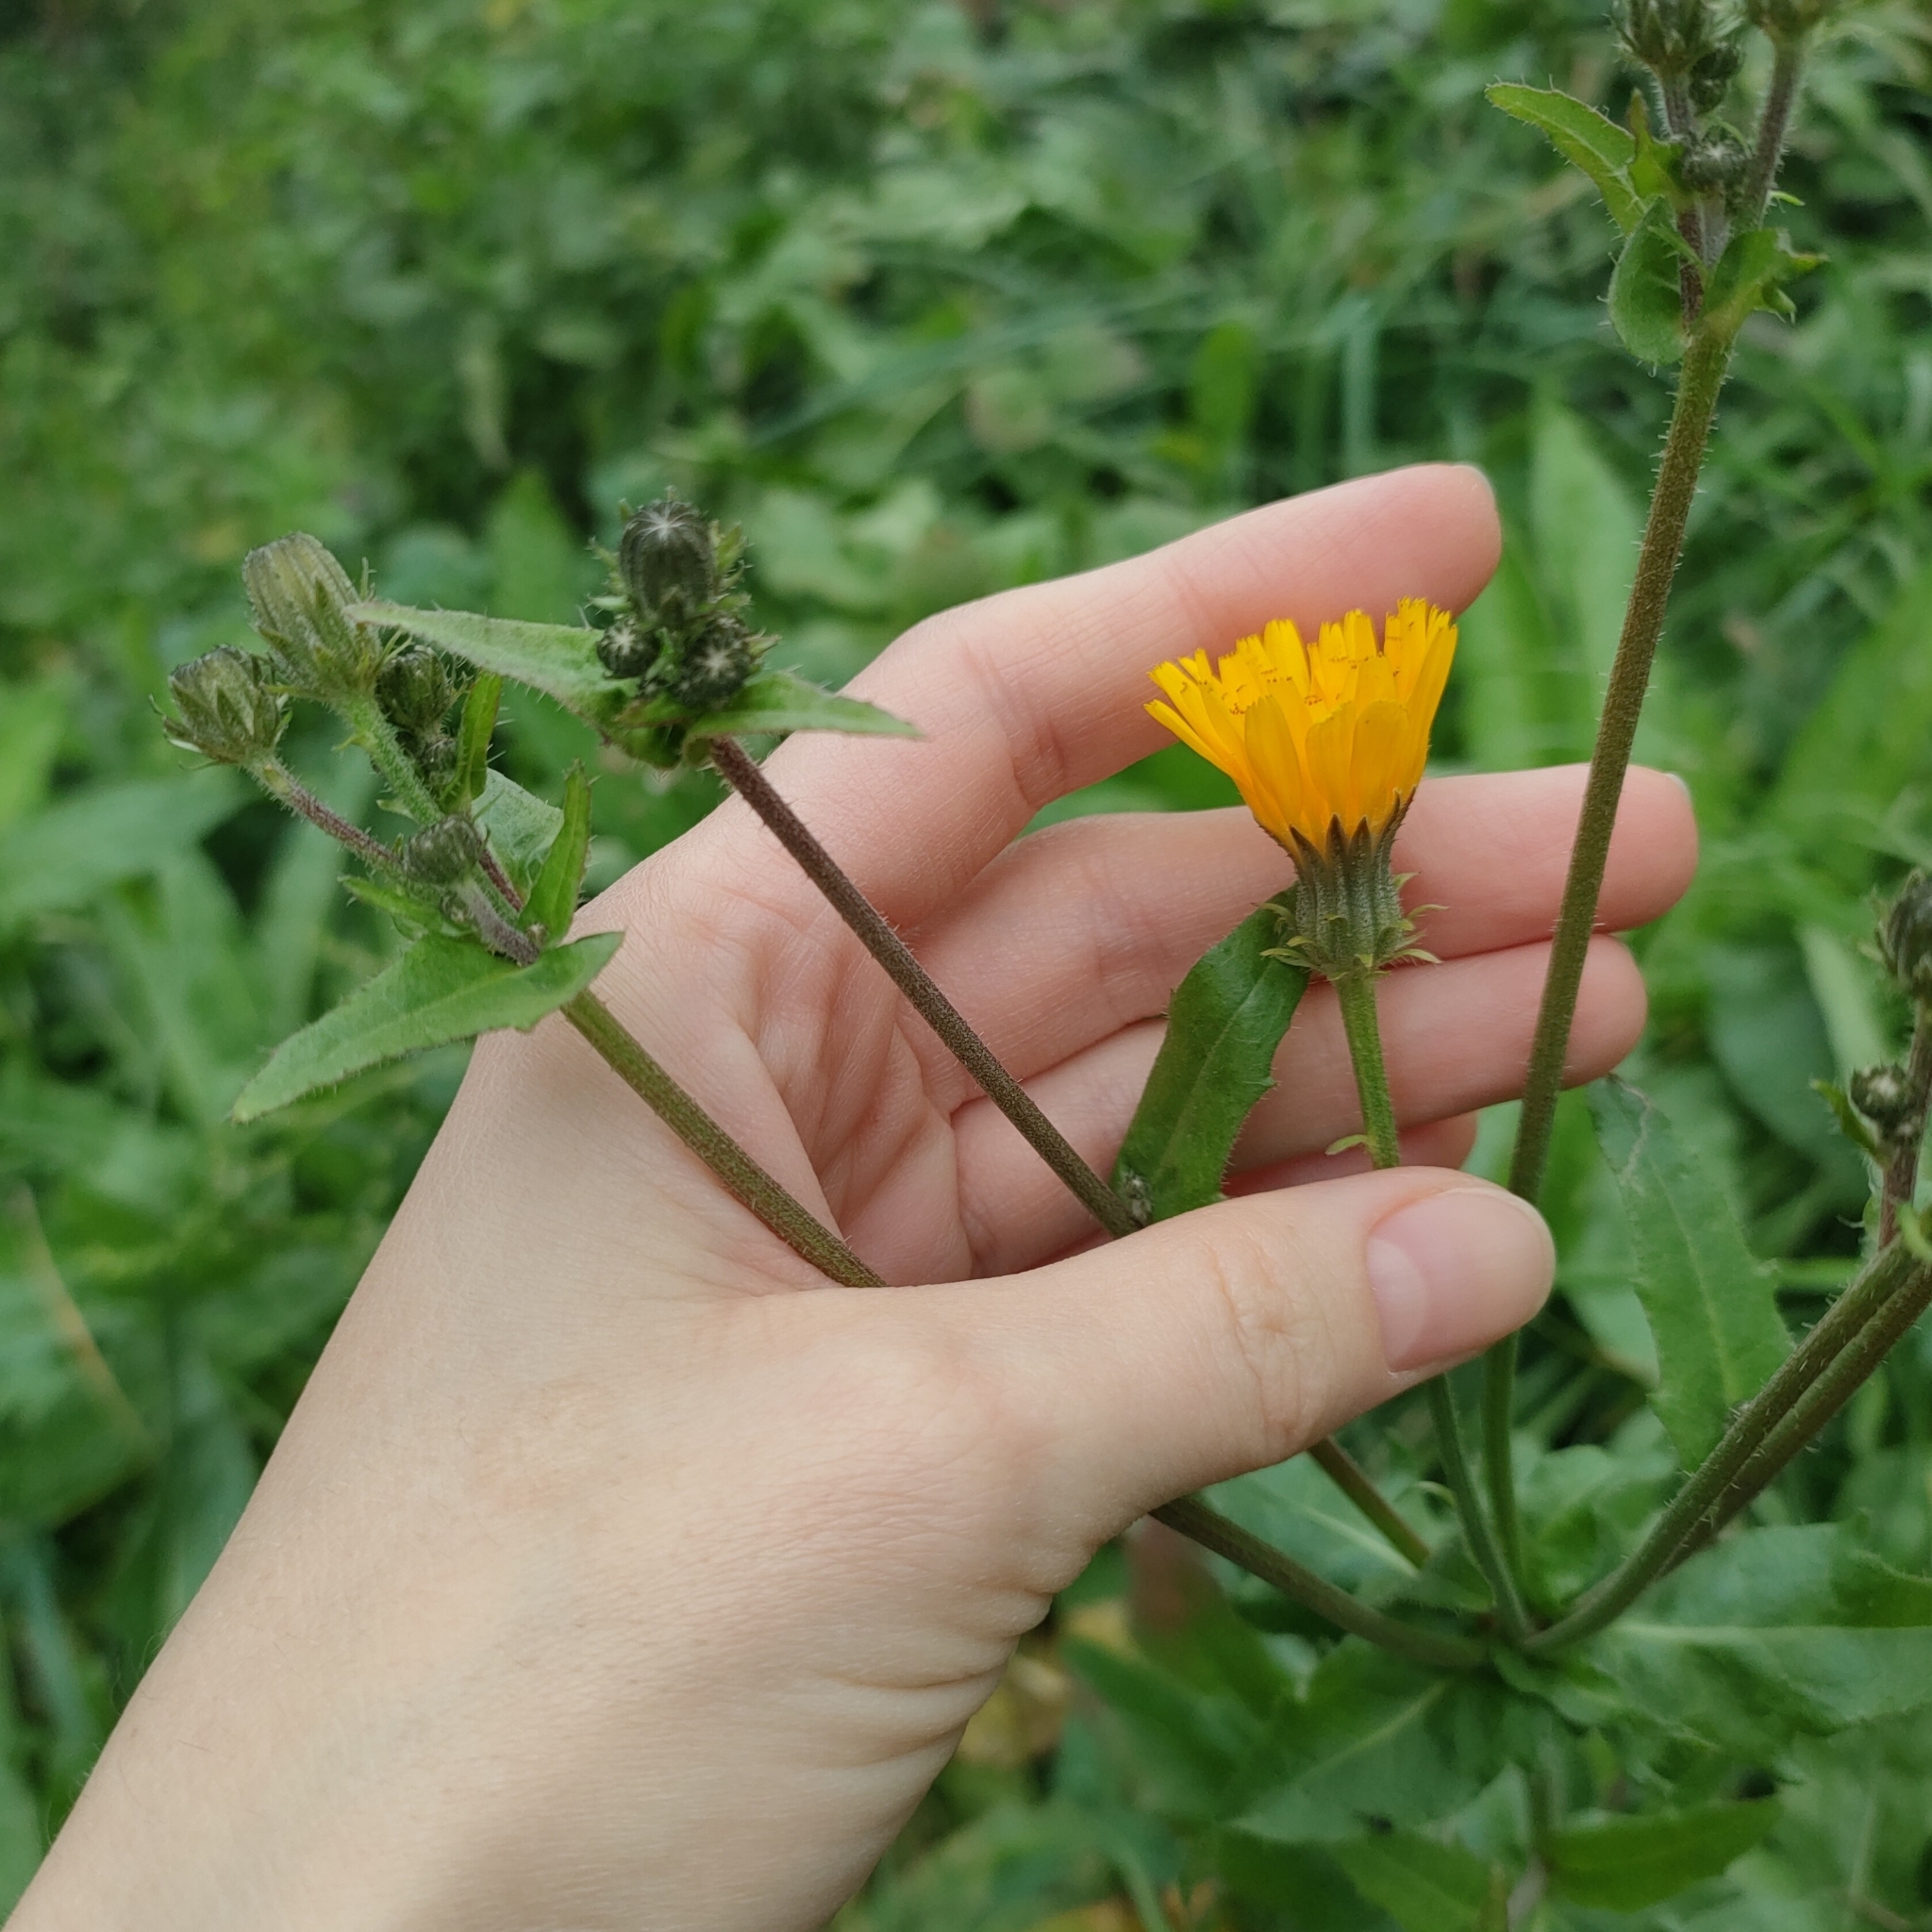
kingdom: Plantae
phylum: Tracheophyta
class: Magnoliopsida
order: Asterales
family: Asteraceae
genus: Picris
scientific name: Picris hieracioides
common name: Hawkweed oxtongue
